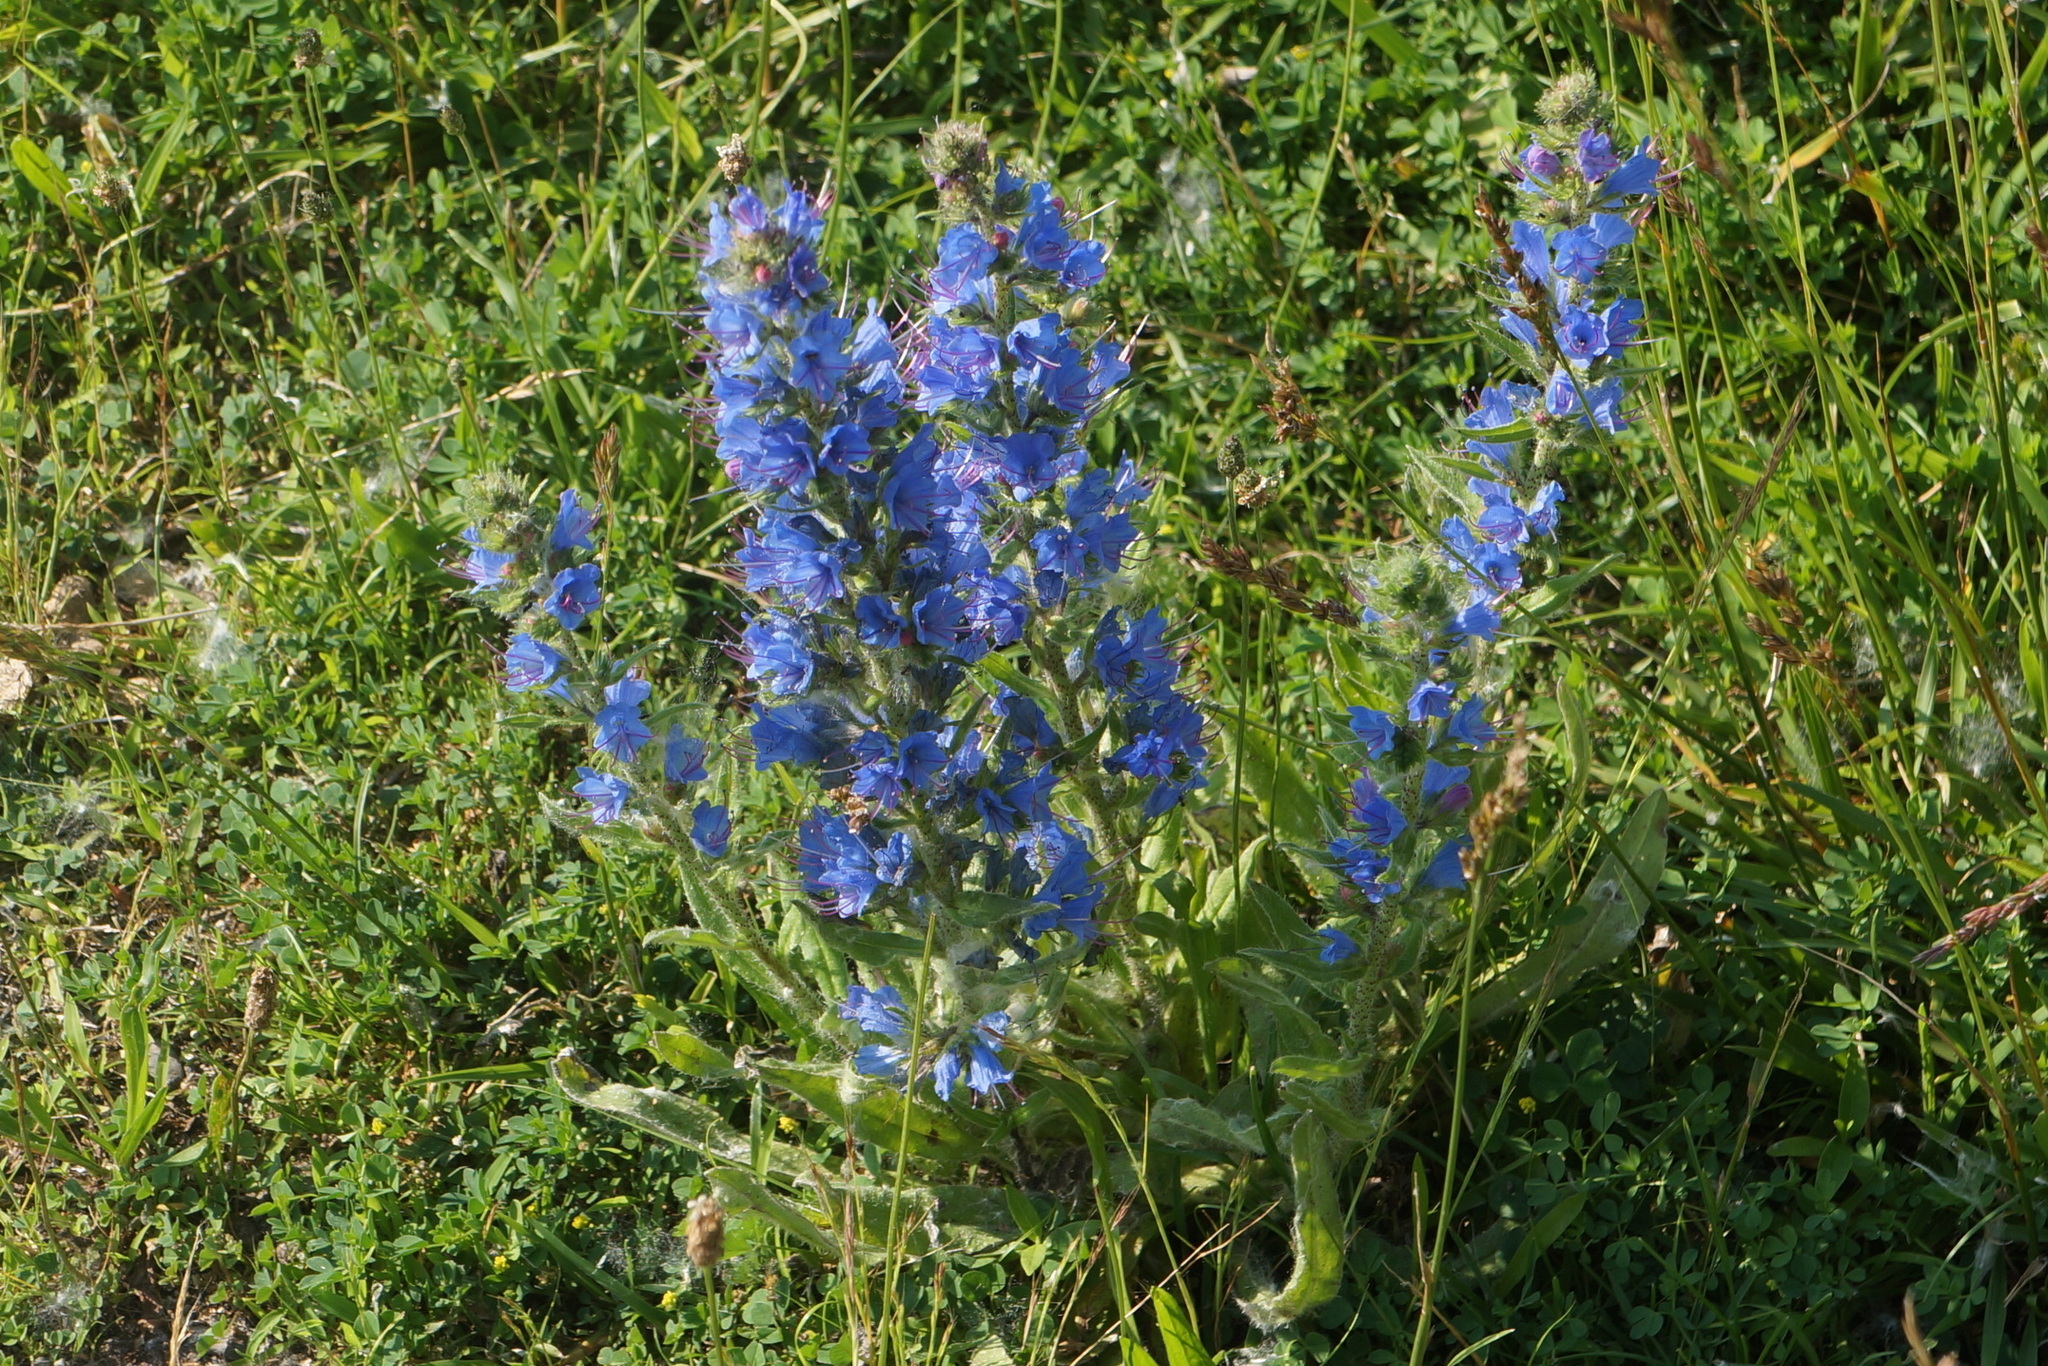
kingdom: Plantae
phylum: Tracheophyta
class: Magnoliopsida
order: Boraginales
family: Boraginaceae
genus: Echium
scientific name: Echium vulgare
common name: Common viper's bugloss
